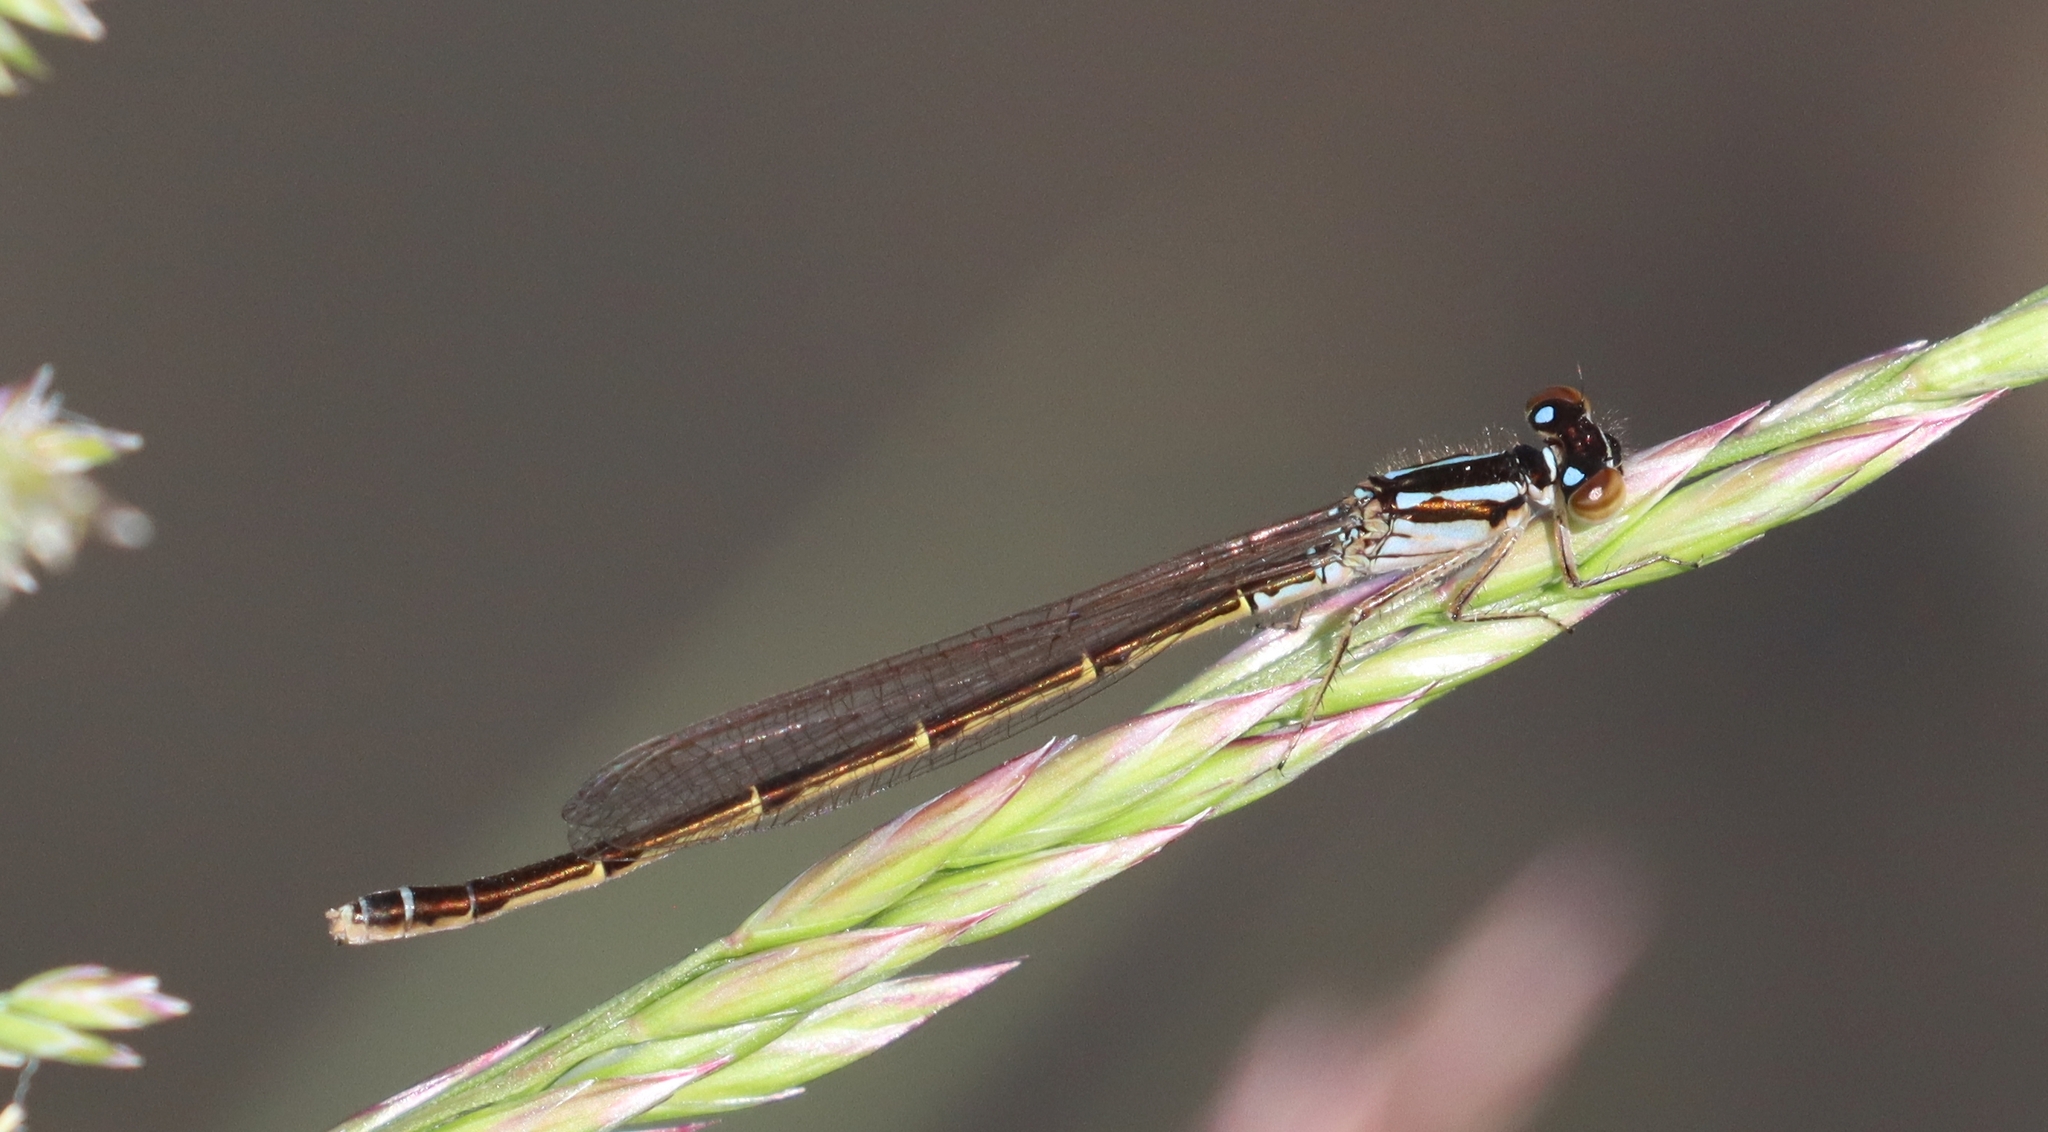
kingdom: Animalia
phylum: Arthropoda
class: Insecta
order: Odonata
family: Coenagrionidae
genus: Ischnura
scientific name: Ischnura posita
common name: Fragile forktail
